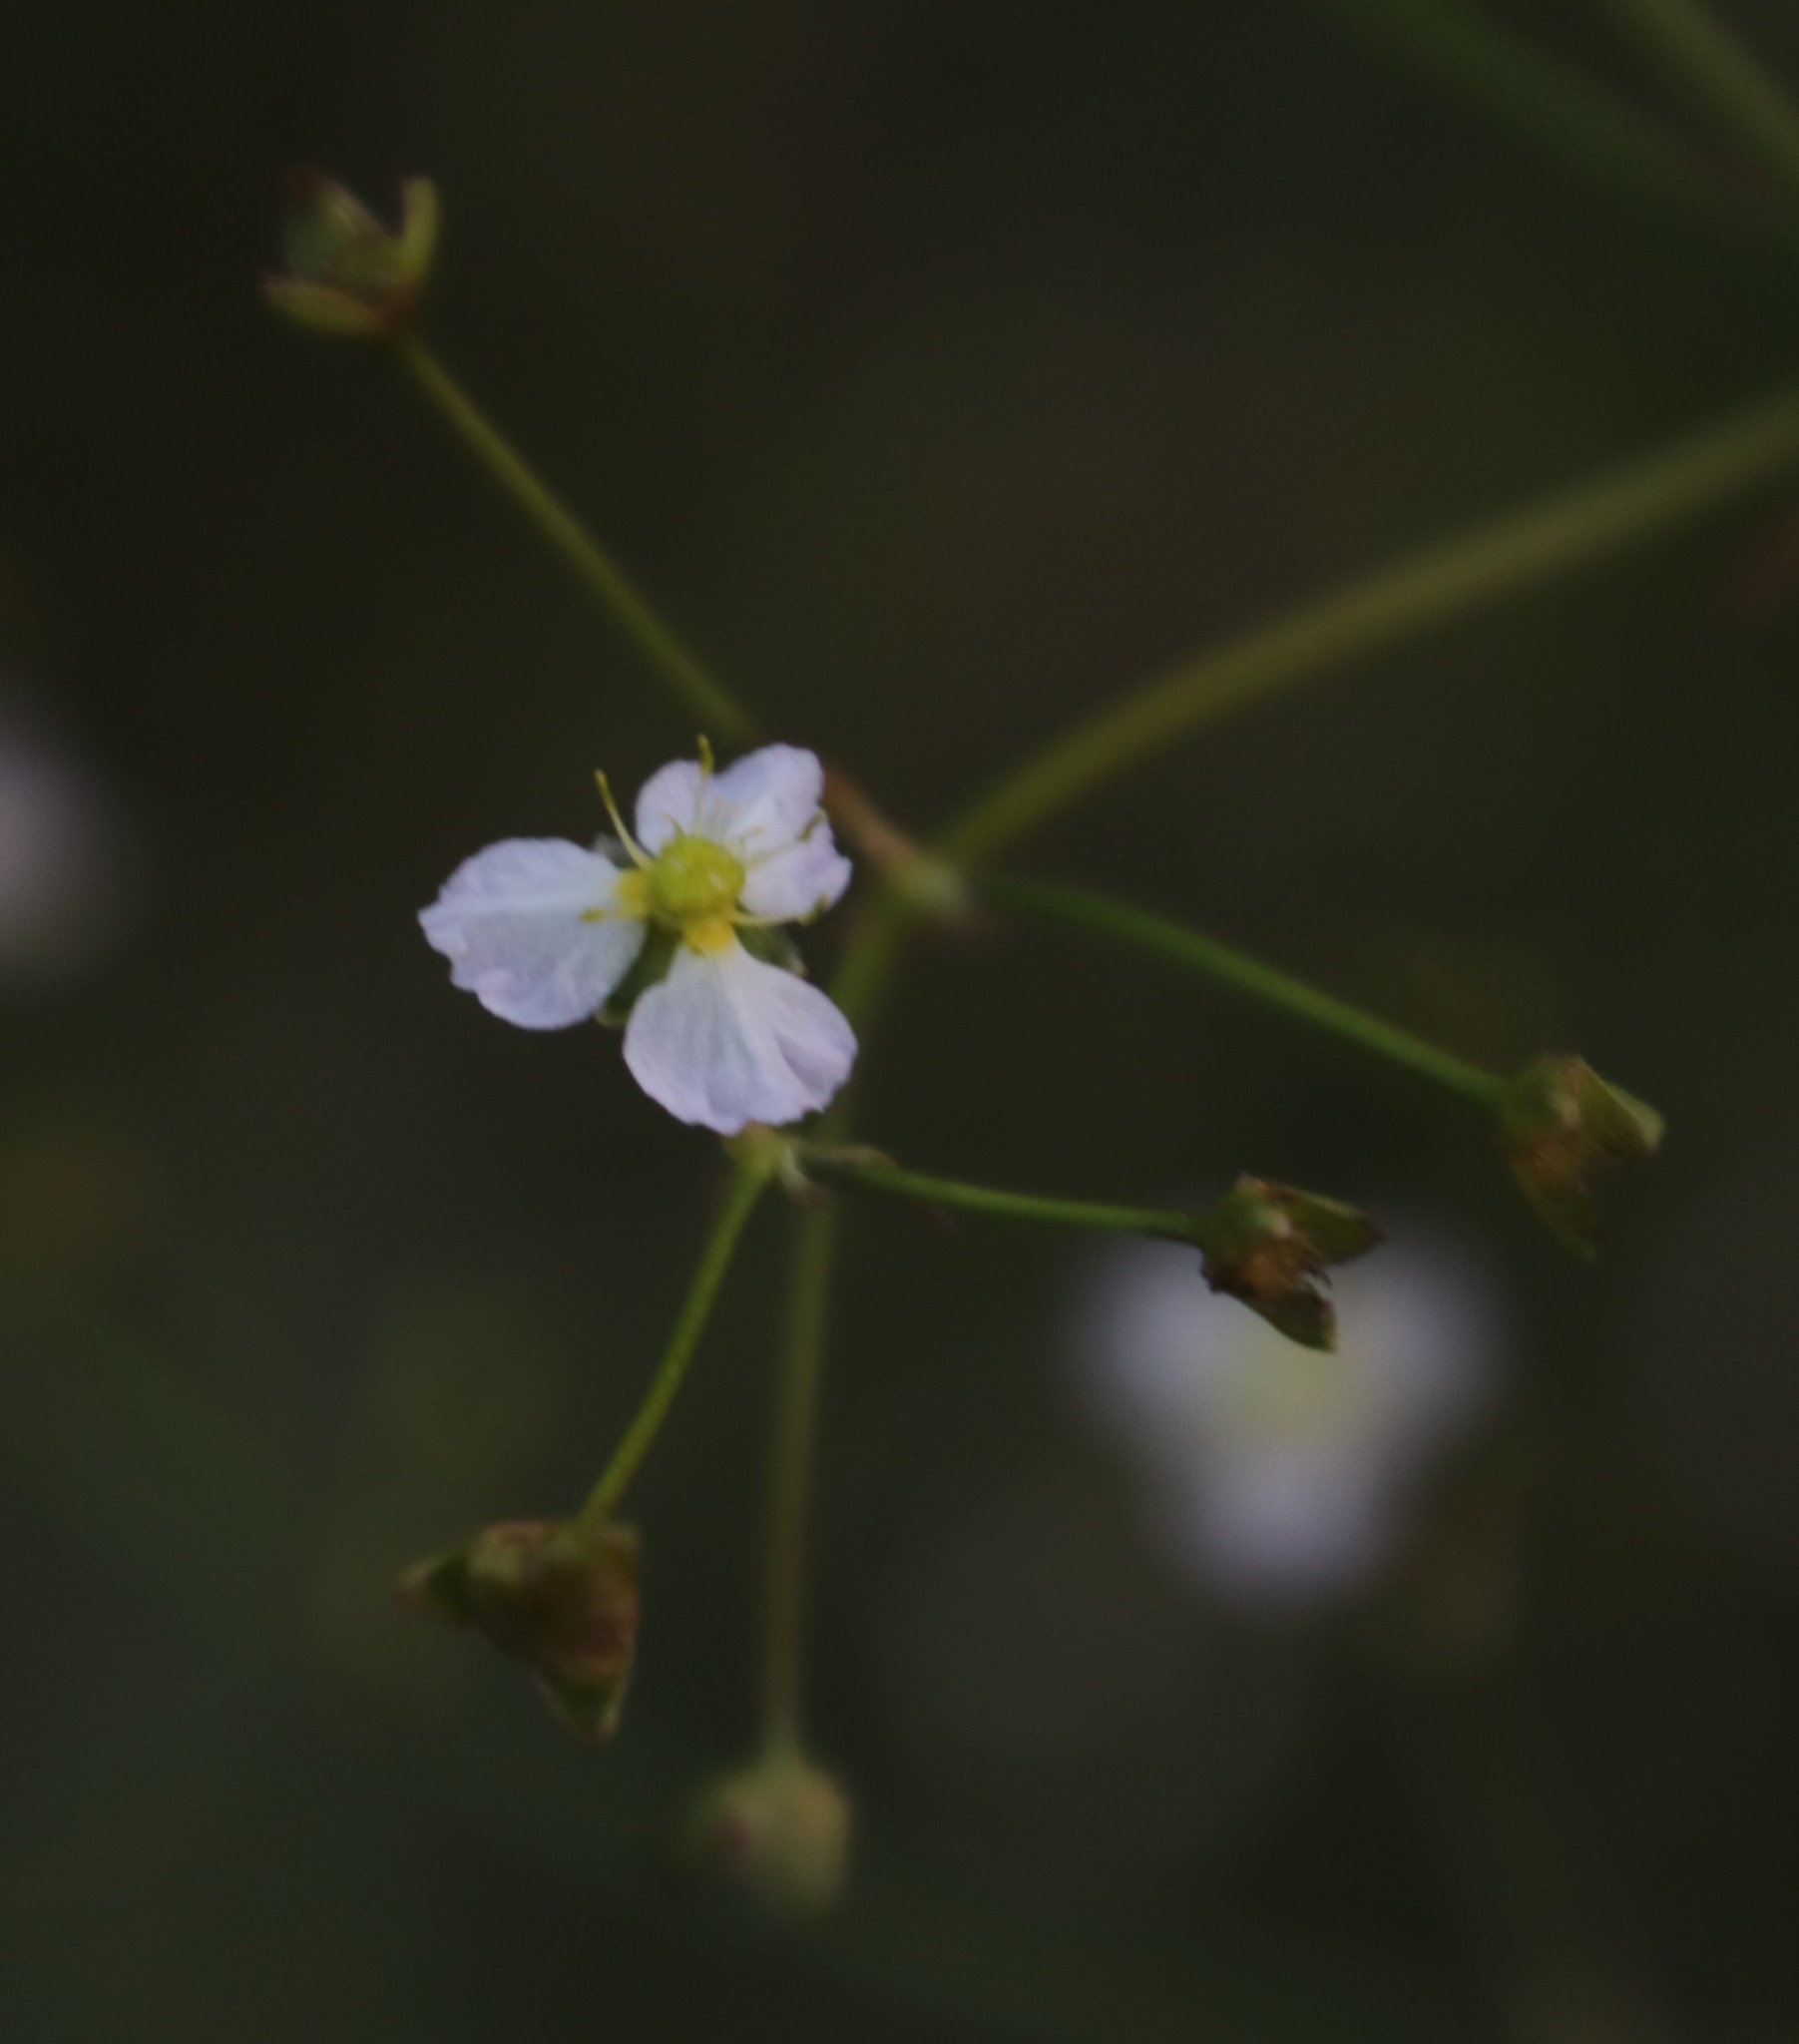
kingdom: Plantae
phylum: Tracheophyta
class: Liliopsida
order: Alismatales
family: Alismataceae
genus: Alisma
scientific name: Alisma plantago-aquatica
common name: Water-plantain
